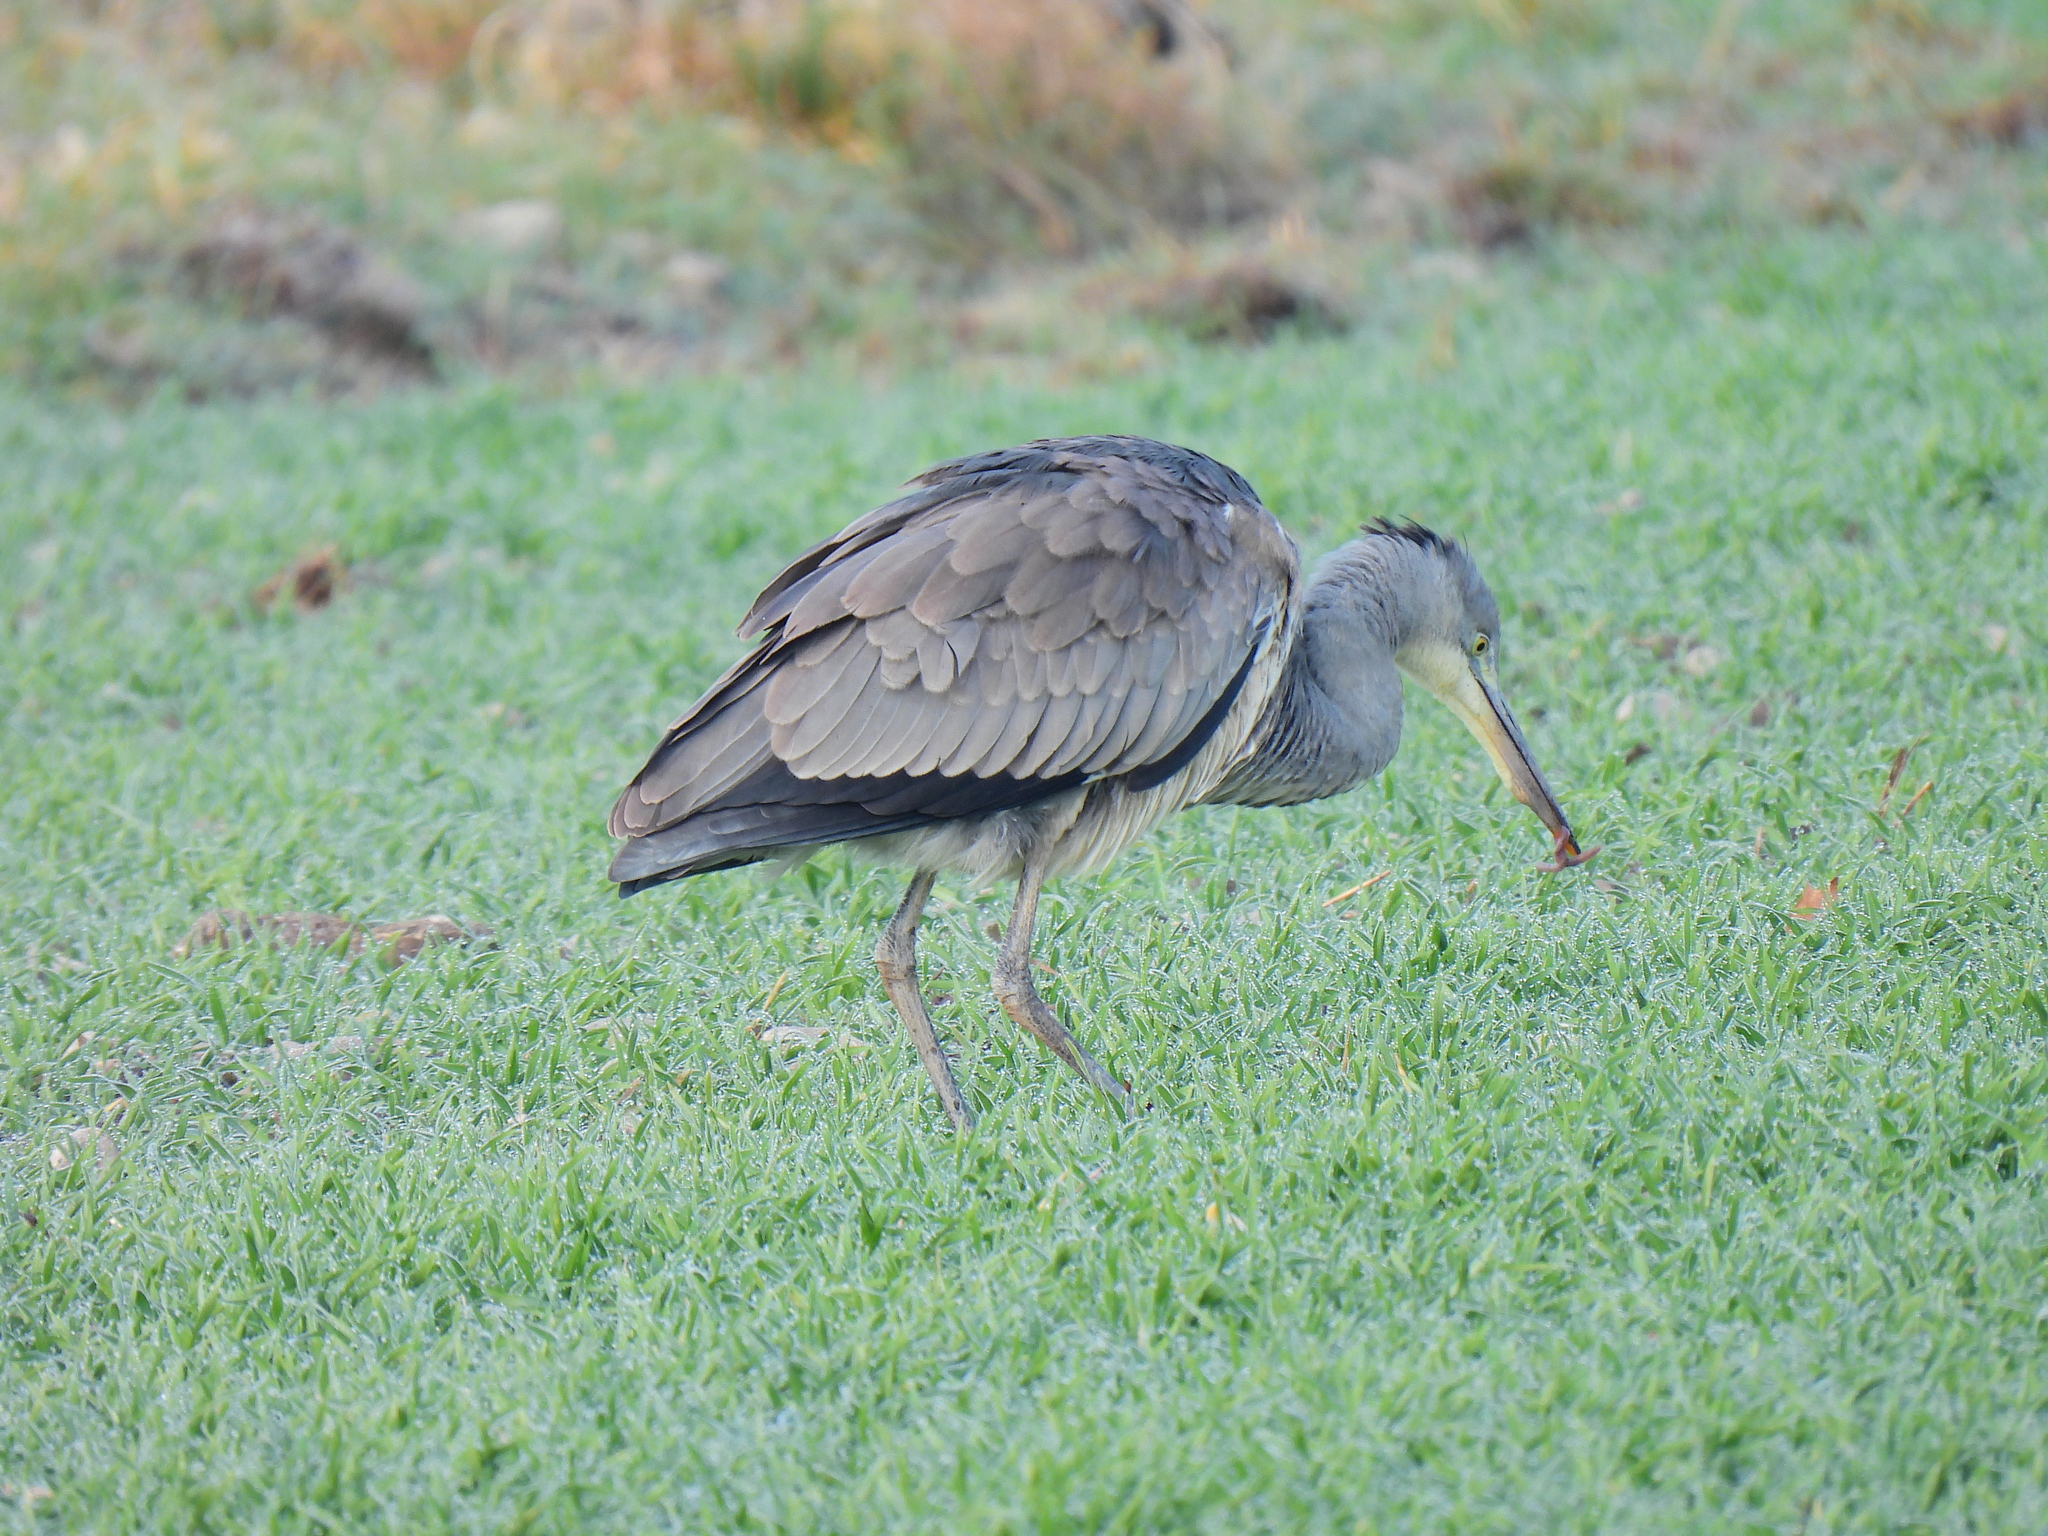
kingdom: Animalia
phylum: Chordata
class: Aves
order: Pelecaniformes
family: Ardeidae
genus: Ardea
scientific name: Ardea cinerea
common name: Grey heron
